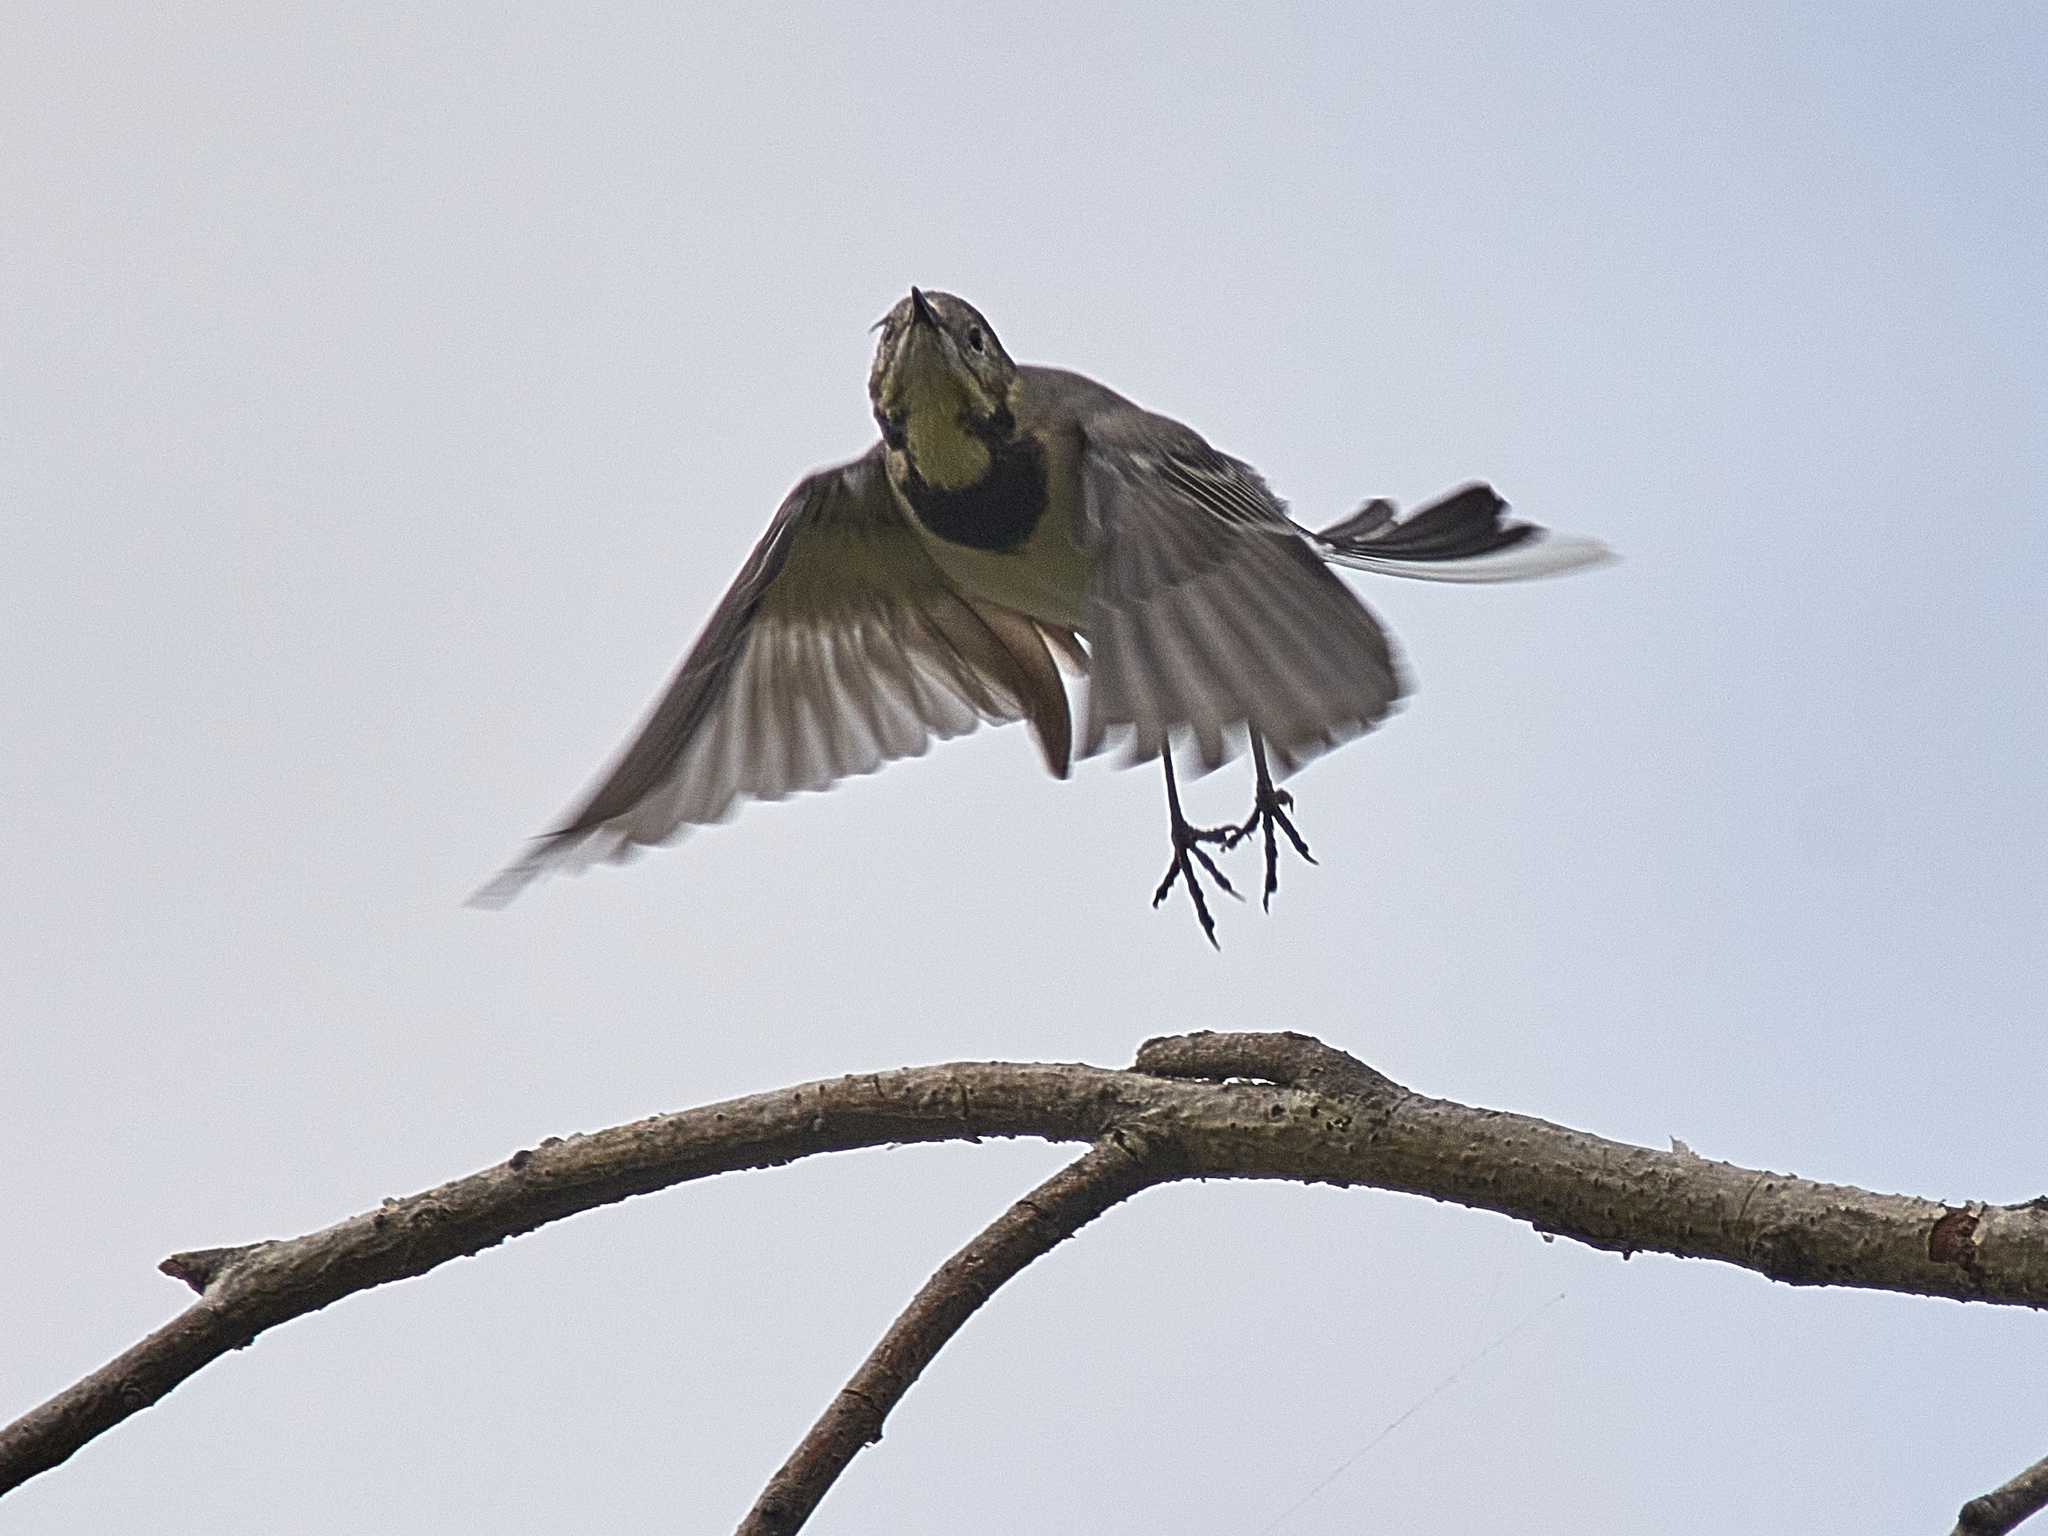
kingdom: Animalia
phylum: Chordata
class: Aves
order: Passeriformes
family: Motacillidae
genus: Motacilla
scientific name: Motacilla alba
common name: White wagtail
